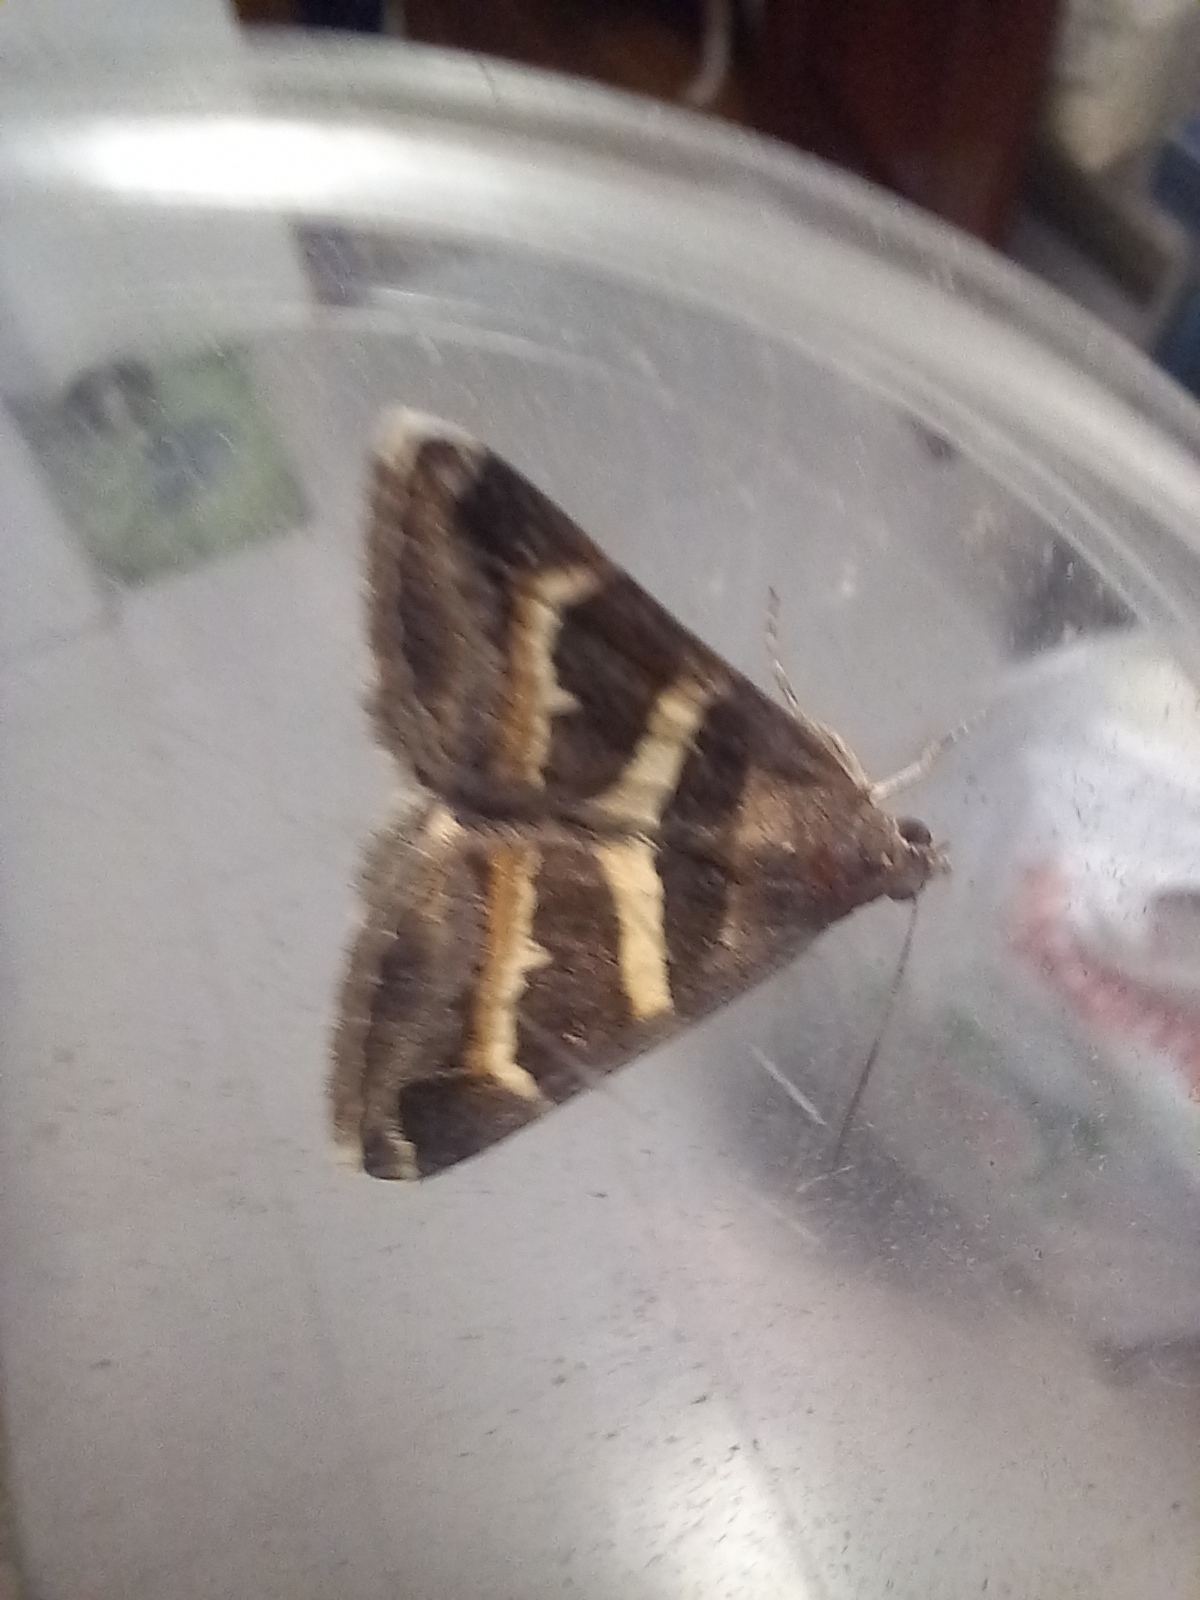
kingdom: Animalia
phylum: Arthropoda
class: Insecta
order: Lepidoptera
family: Erebidae
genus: Grammodes
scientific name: Grammodes stolida
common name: Geometrician
